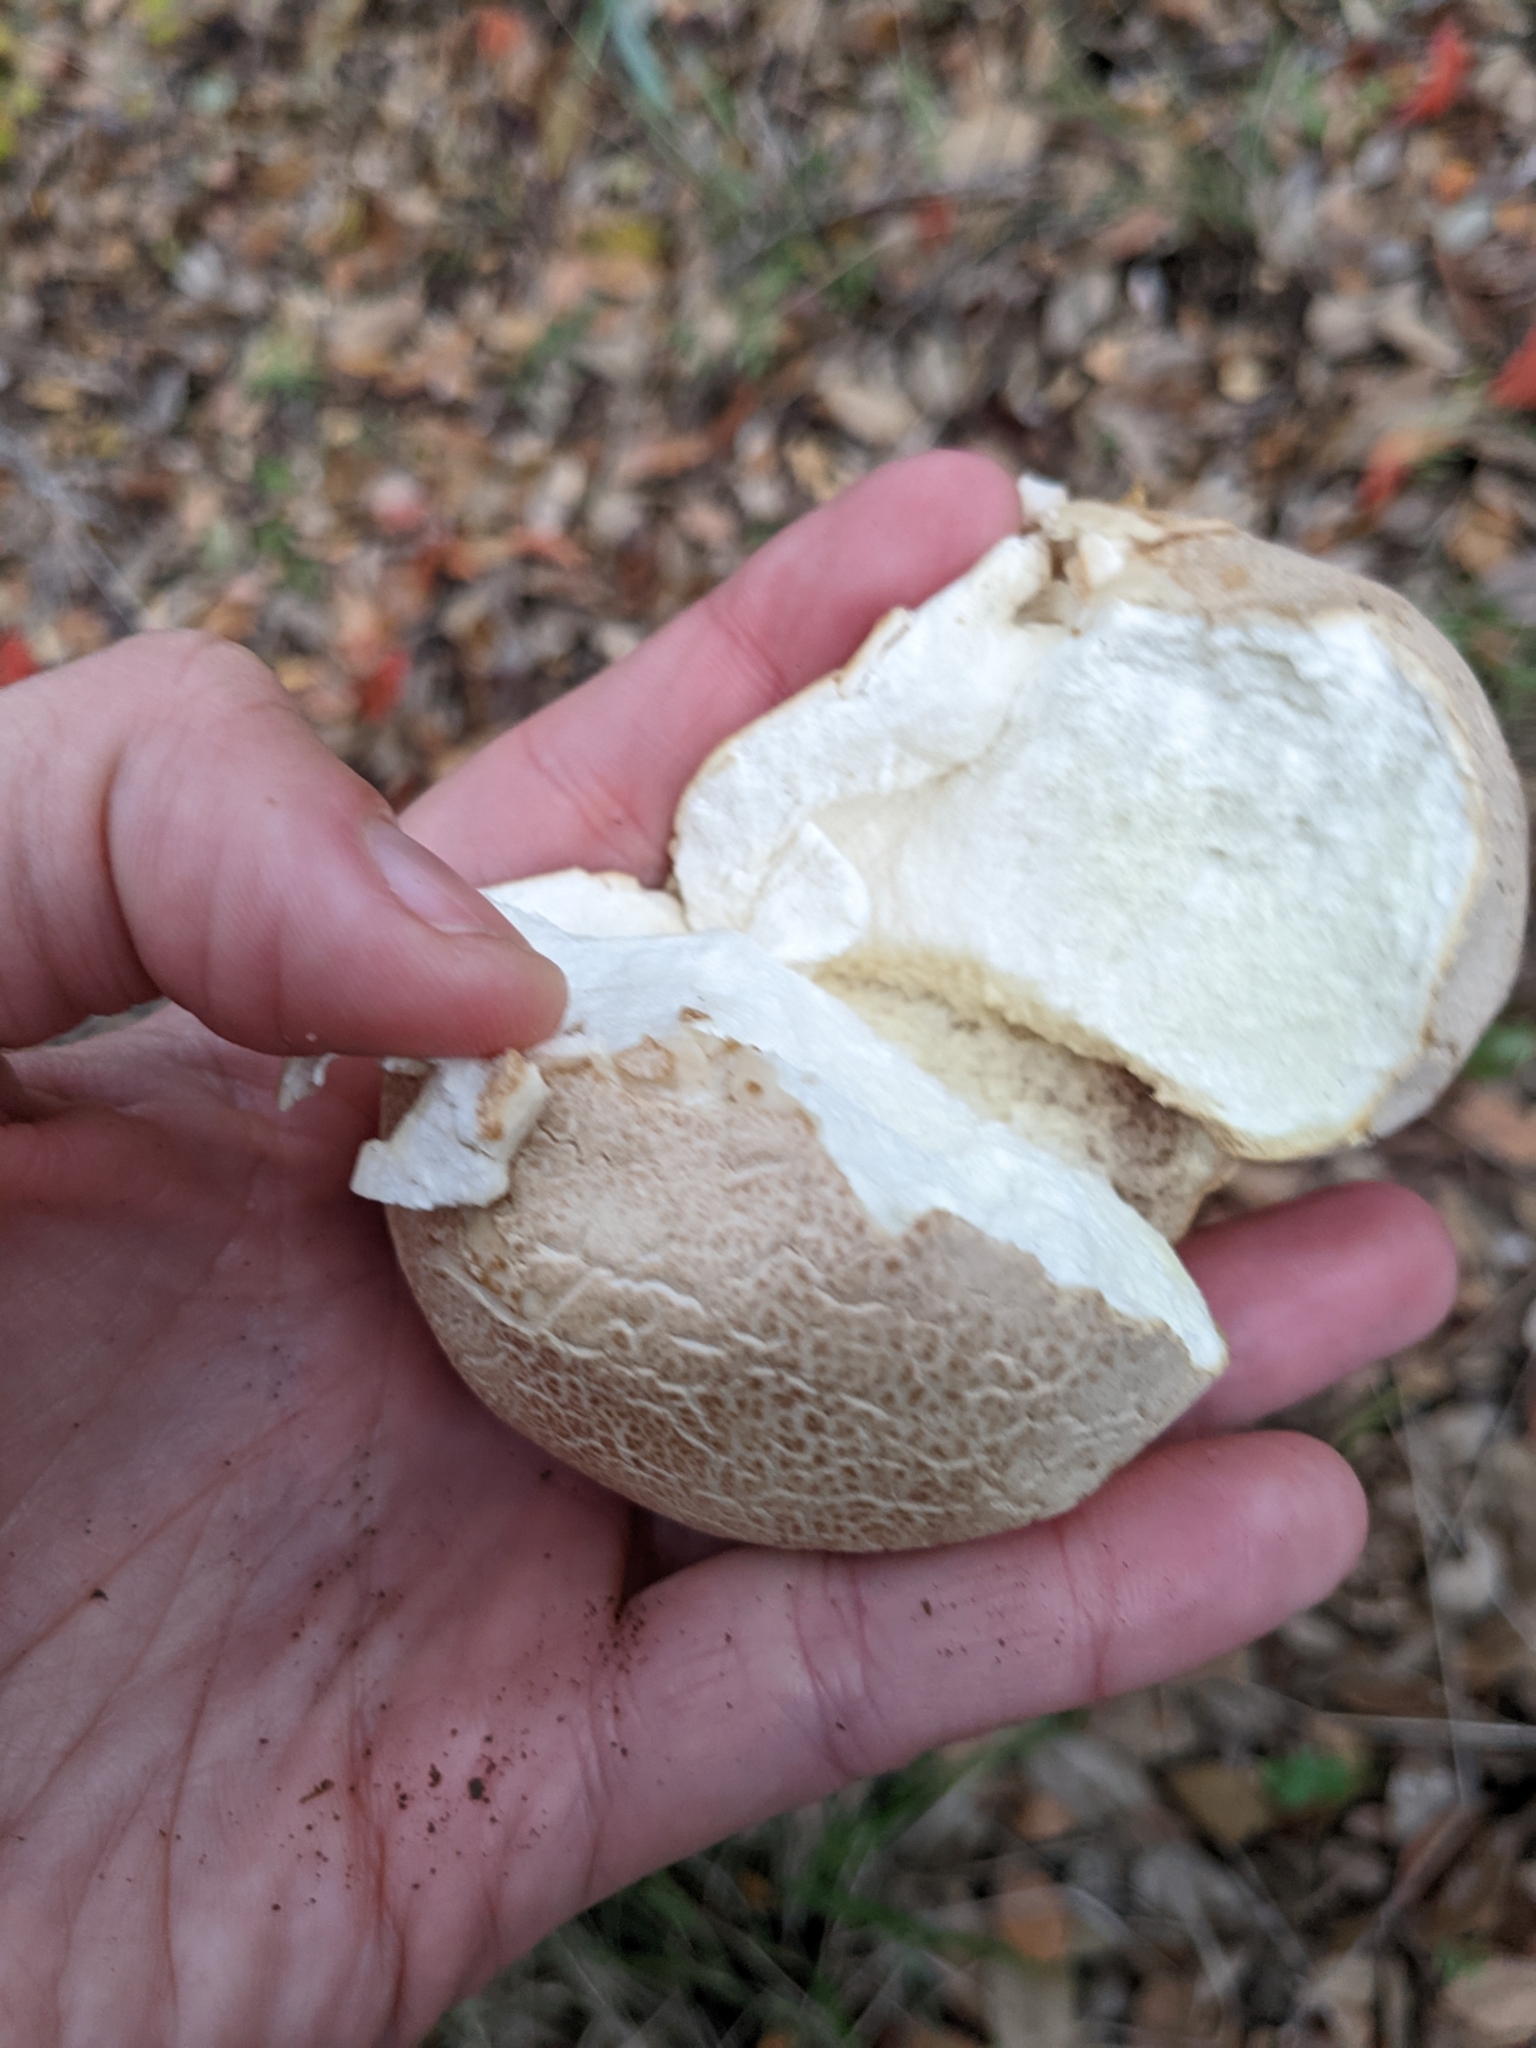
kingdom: Fungi
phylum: Basidiomycota
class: Agaricomycetes
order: Agaricales
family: Lycoperdaceae
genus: Calvatia
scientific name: Calvatia cyathiformis
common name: Purple-spored puffball
